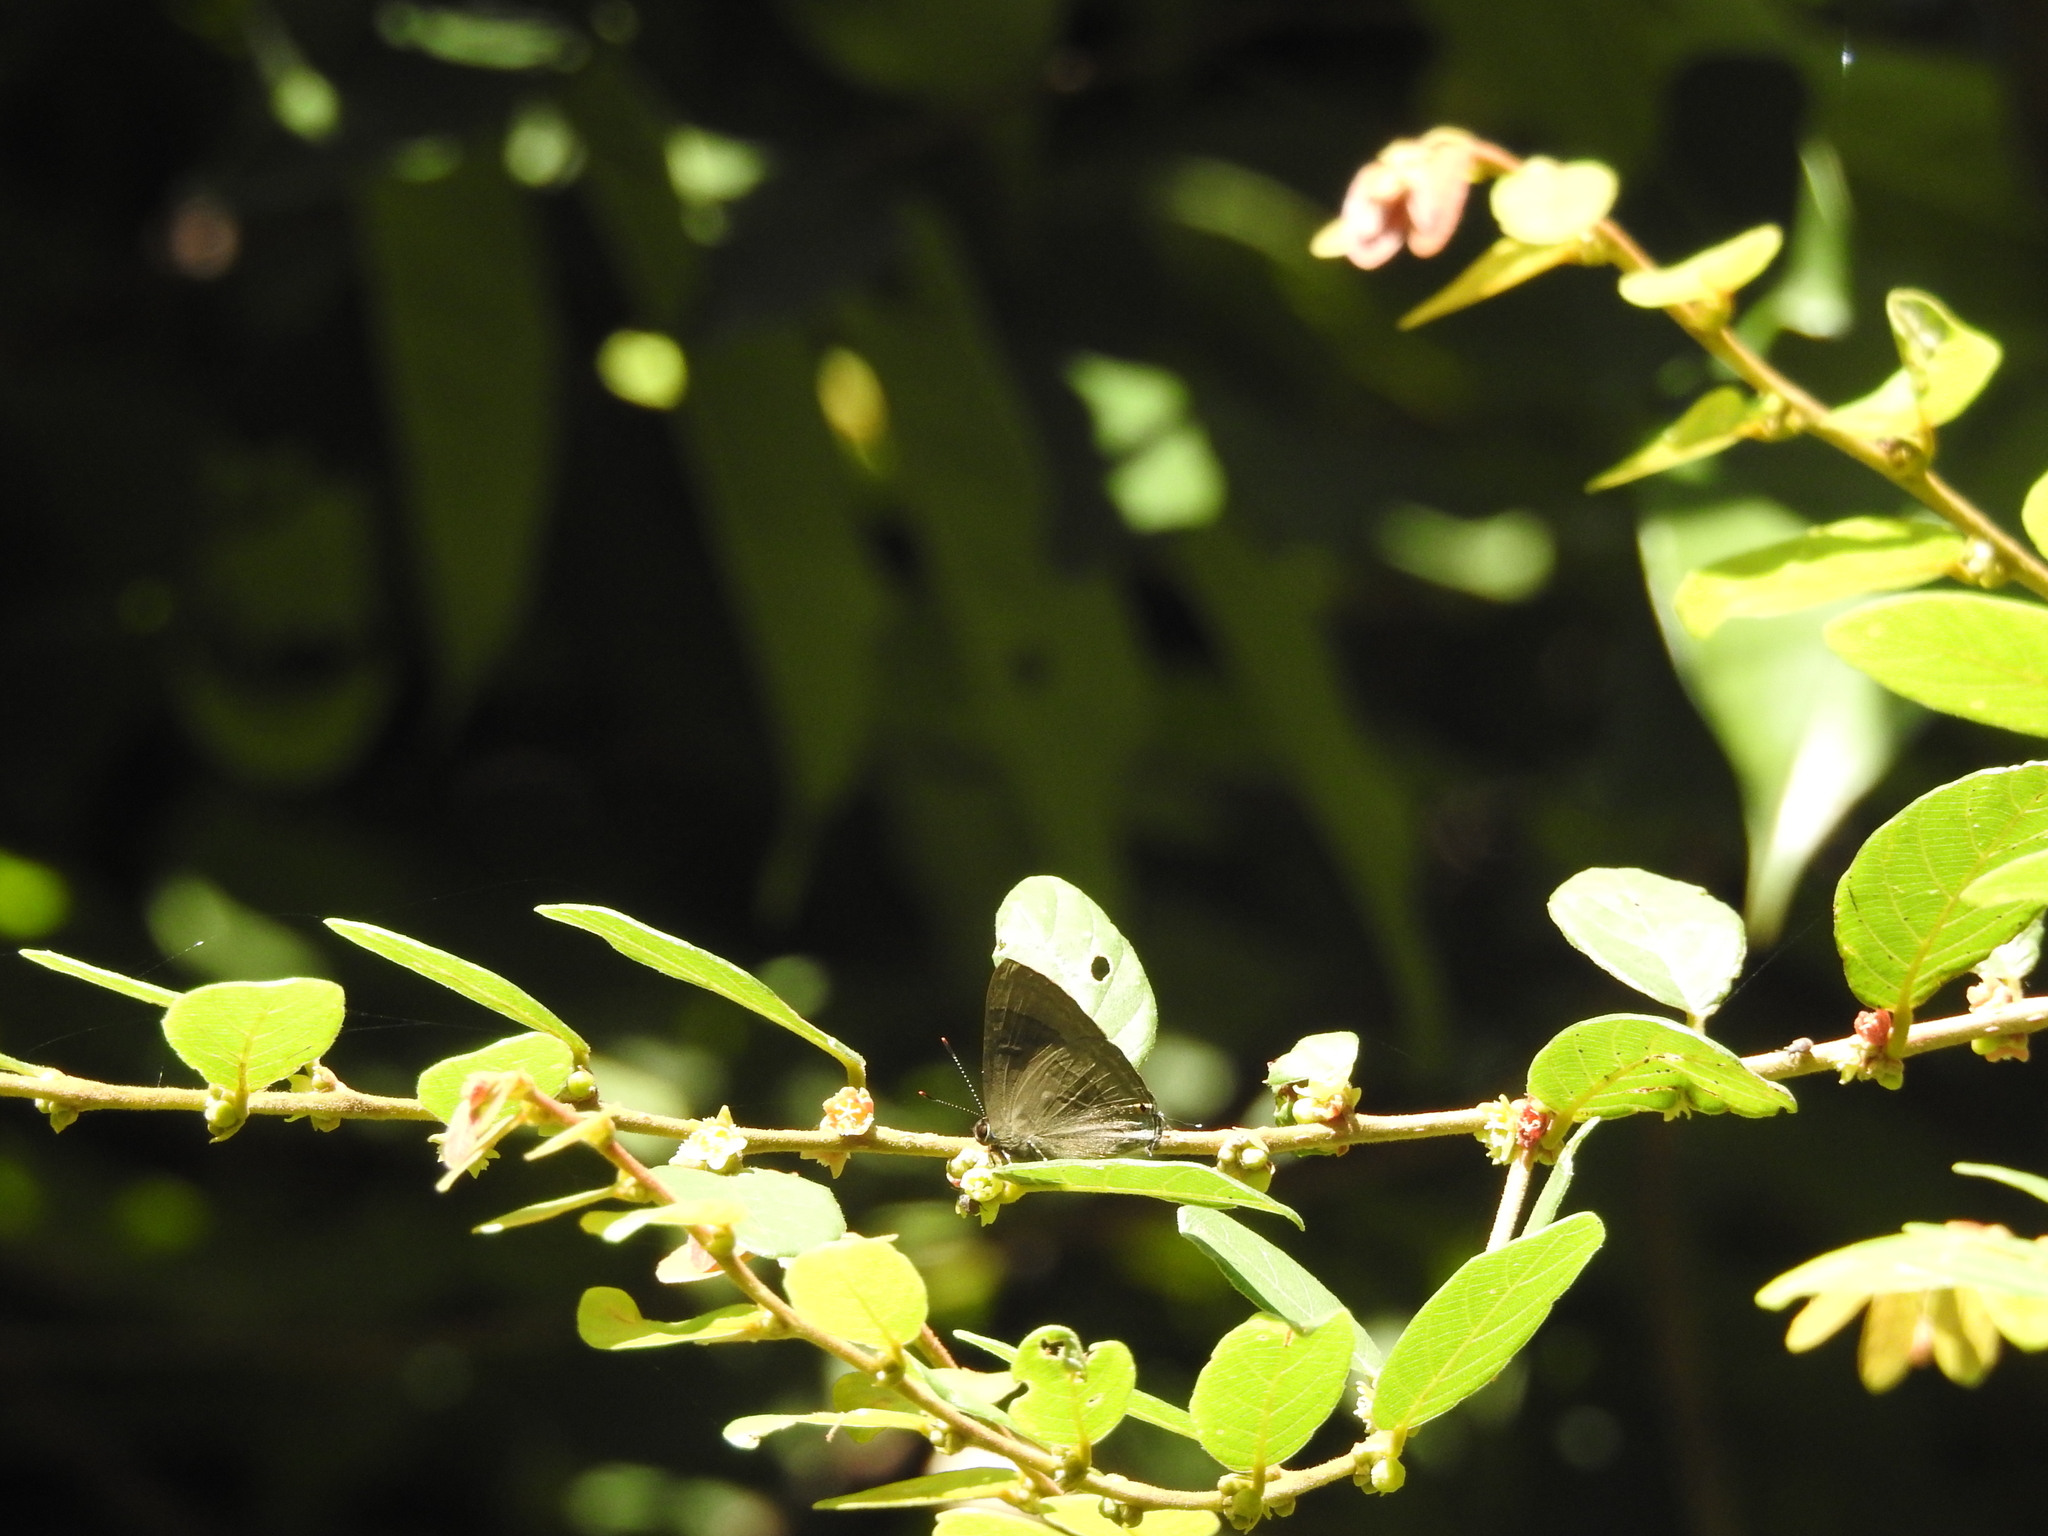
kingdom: Animalia
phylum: Arthropoda
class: Insecta
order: Lepidoptera
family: Lycaenidae
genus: Rapala
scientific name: Rapala varuna
